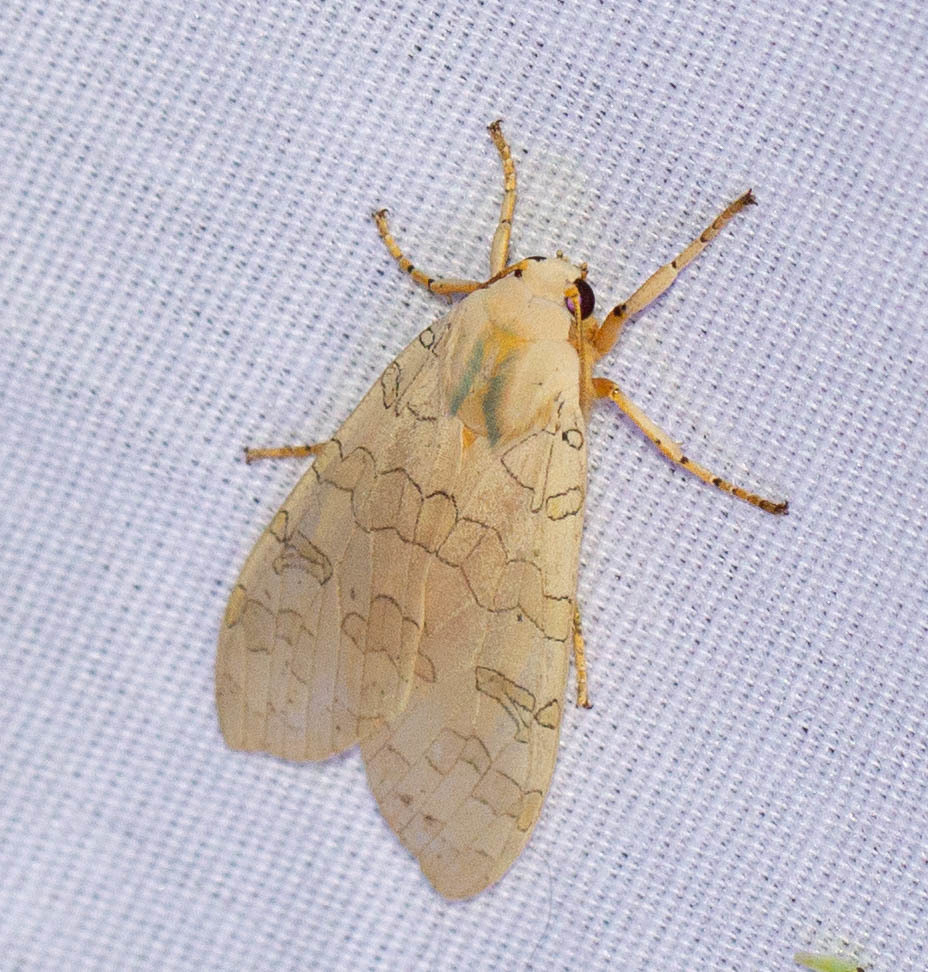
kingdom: Animalia
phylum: Arthropoda
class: Insecta
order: Lepidoptera
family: Erebidae
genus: Halysidota
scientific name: Halysidota
